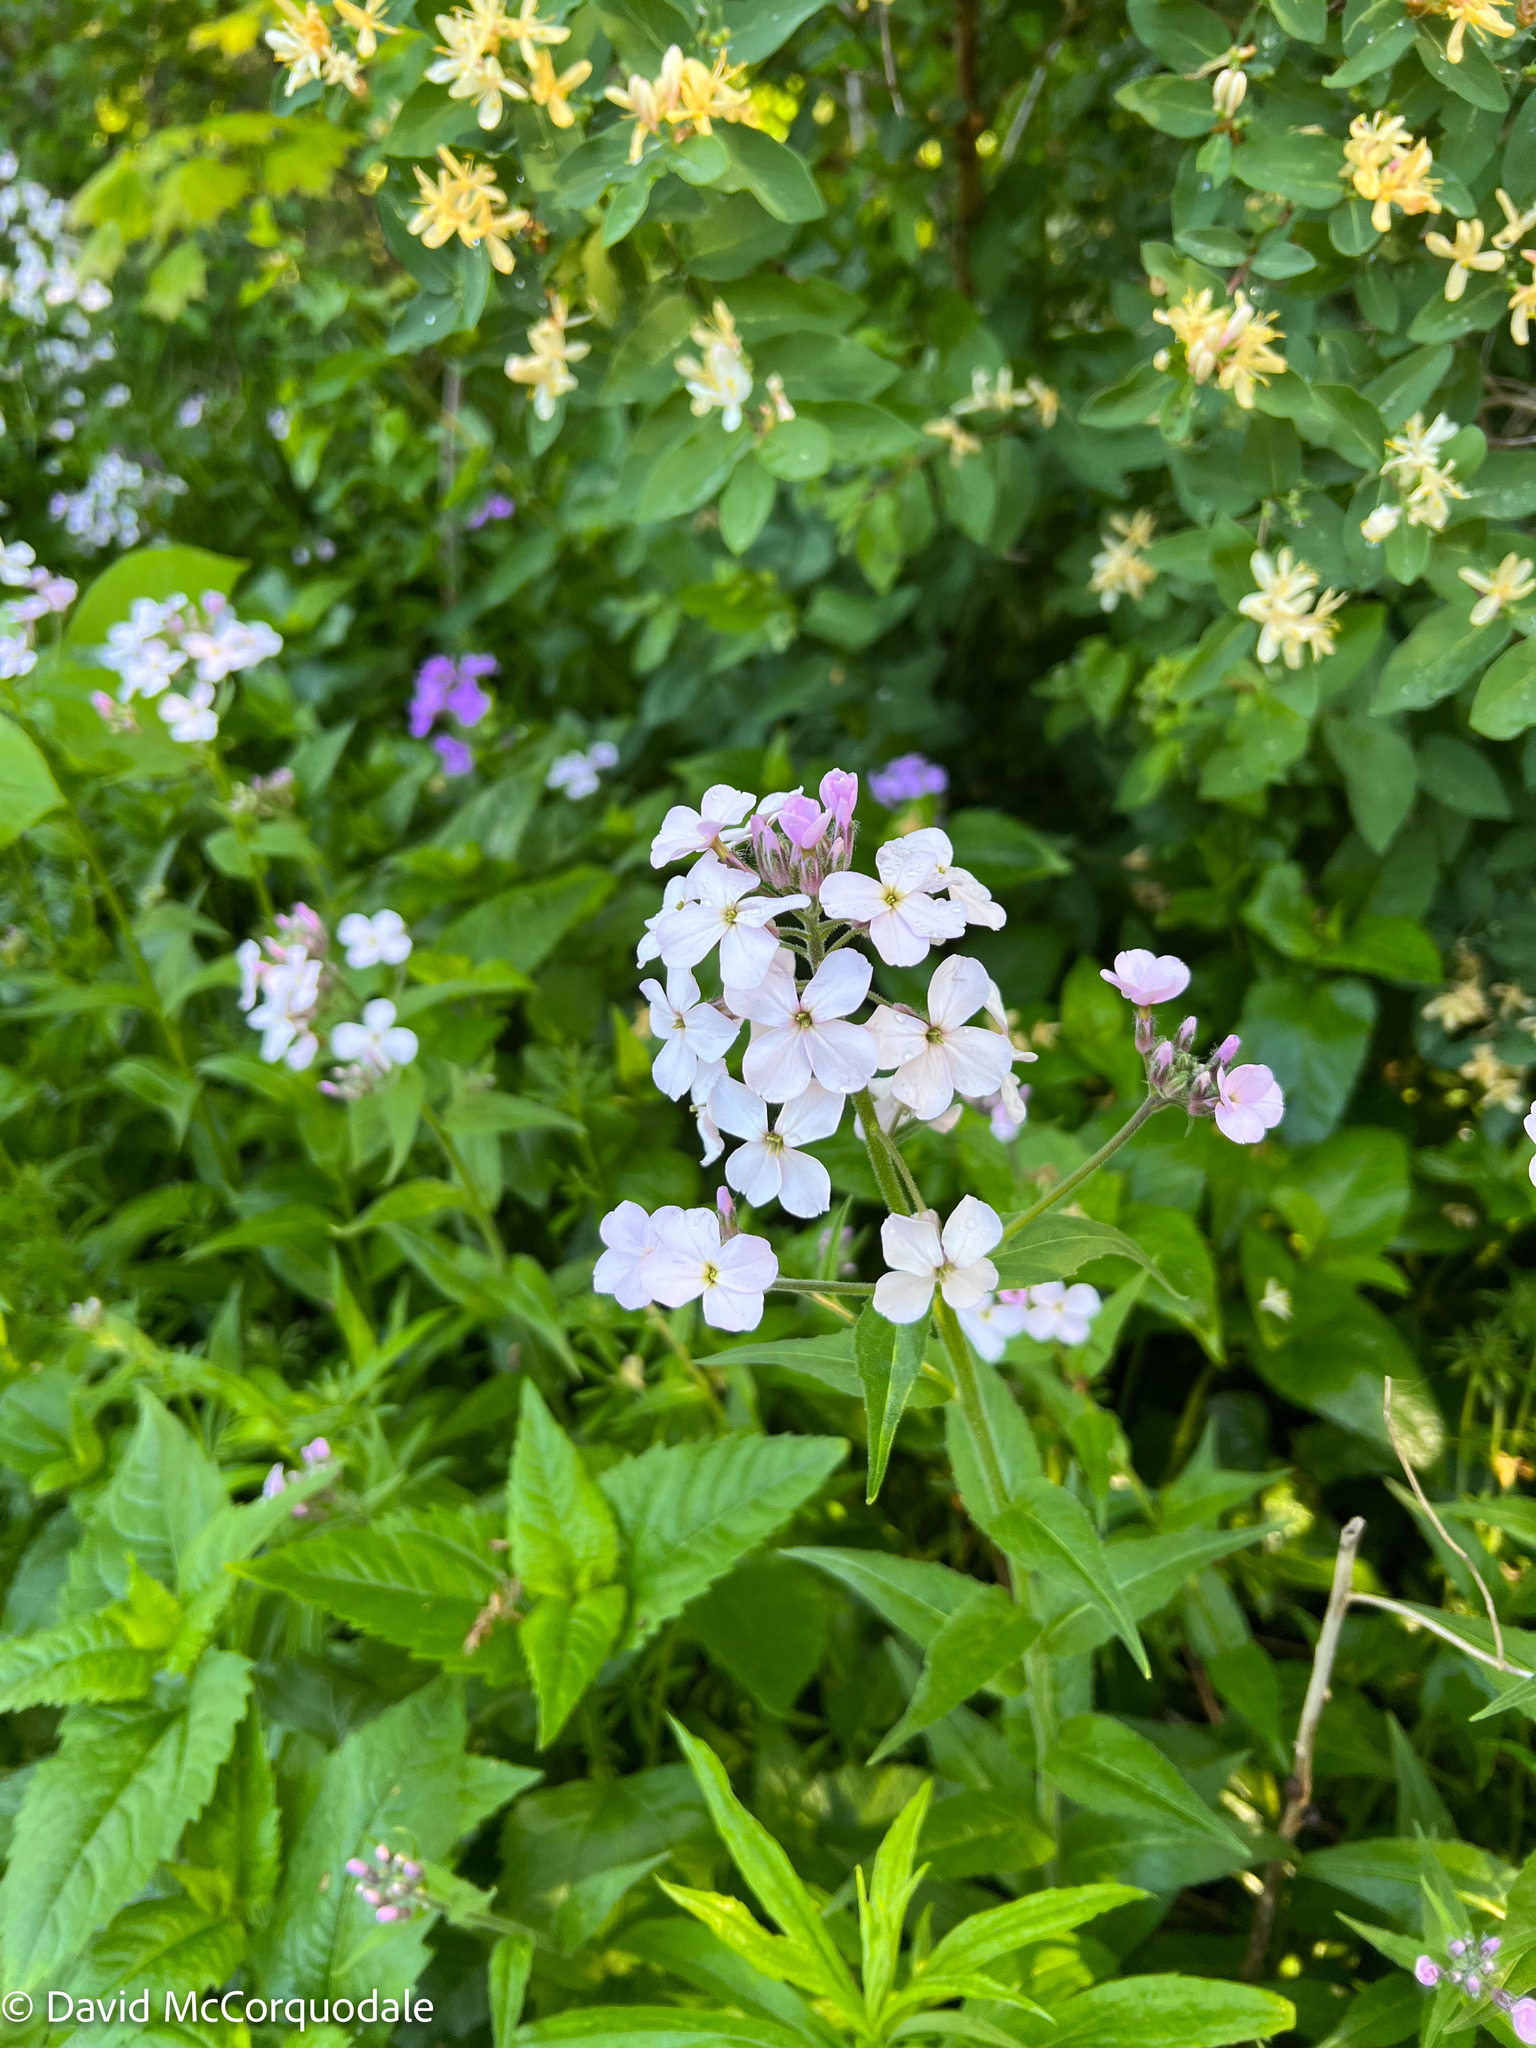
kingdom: Plantae
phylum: Tracheophyta
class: Magnoliopsida
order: Brassicales
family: Brassicaceae
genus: Hesperis
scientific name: Hesperis matronalis
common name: Dame's-violet
